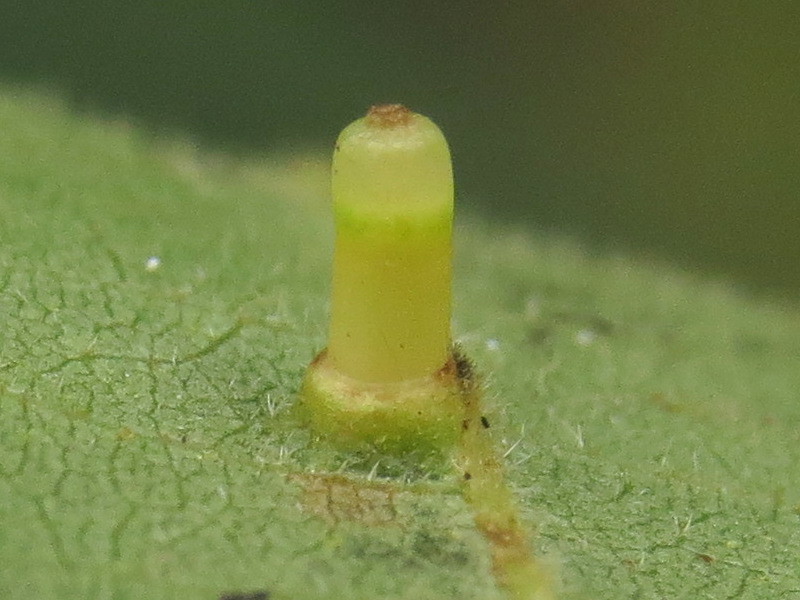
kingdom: Animalia
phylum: Arthropoda
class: Insecta
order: Diptera
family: Cecidomyiidae
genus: Caryomyia
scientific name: Caryomyia tubicola
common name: Hickory bullet gall midge
